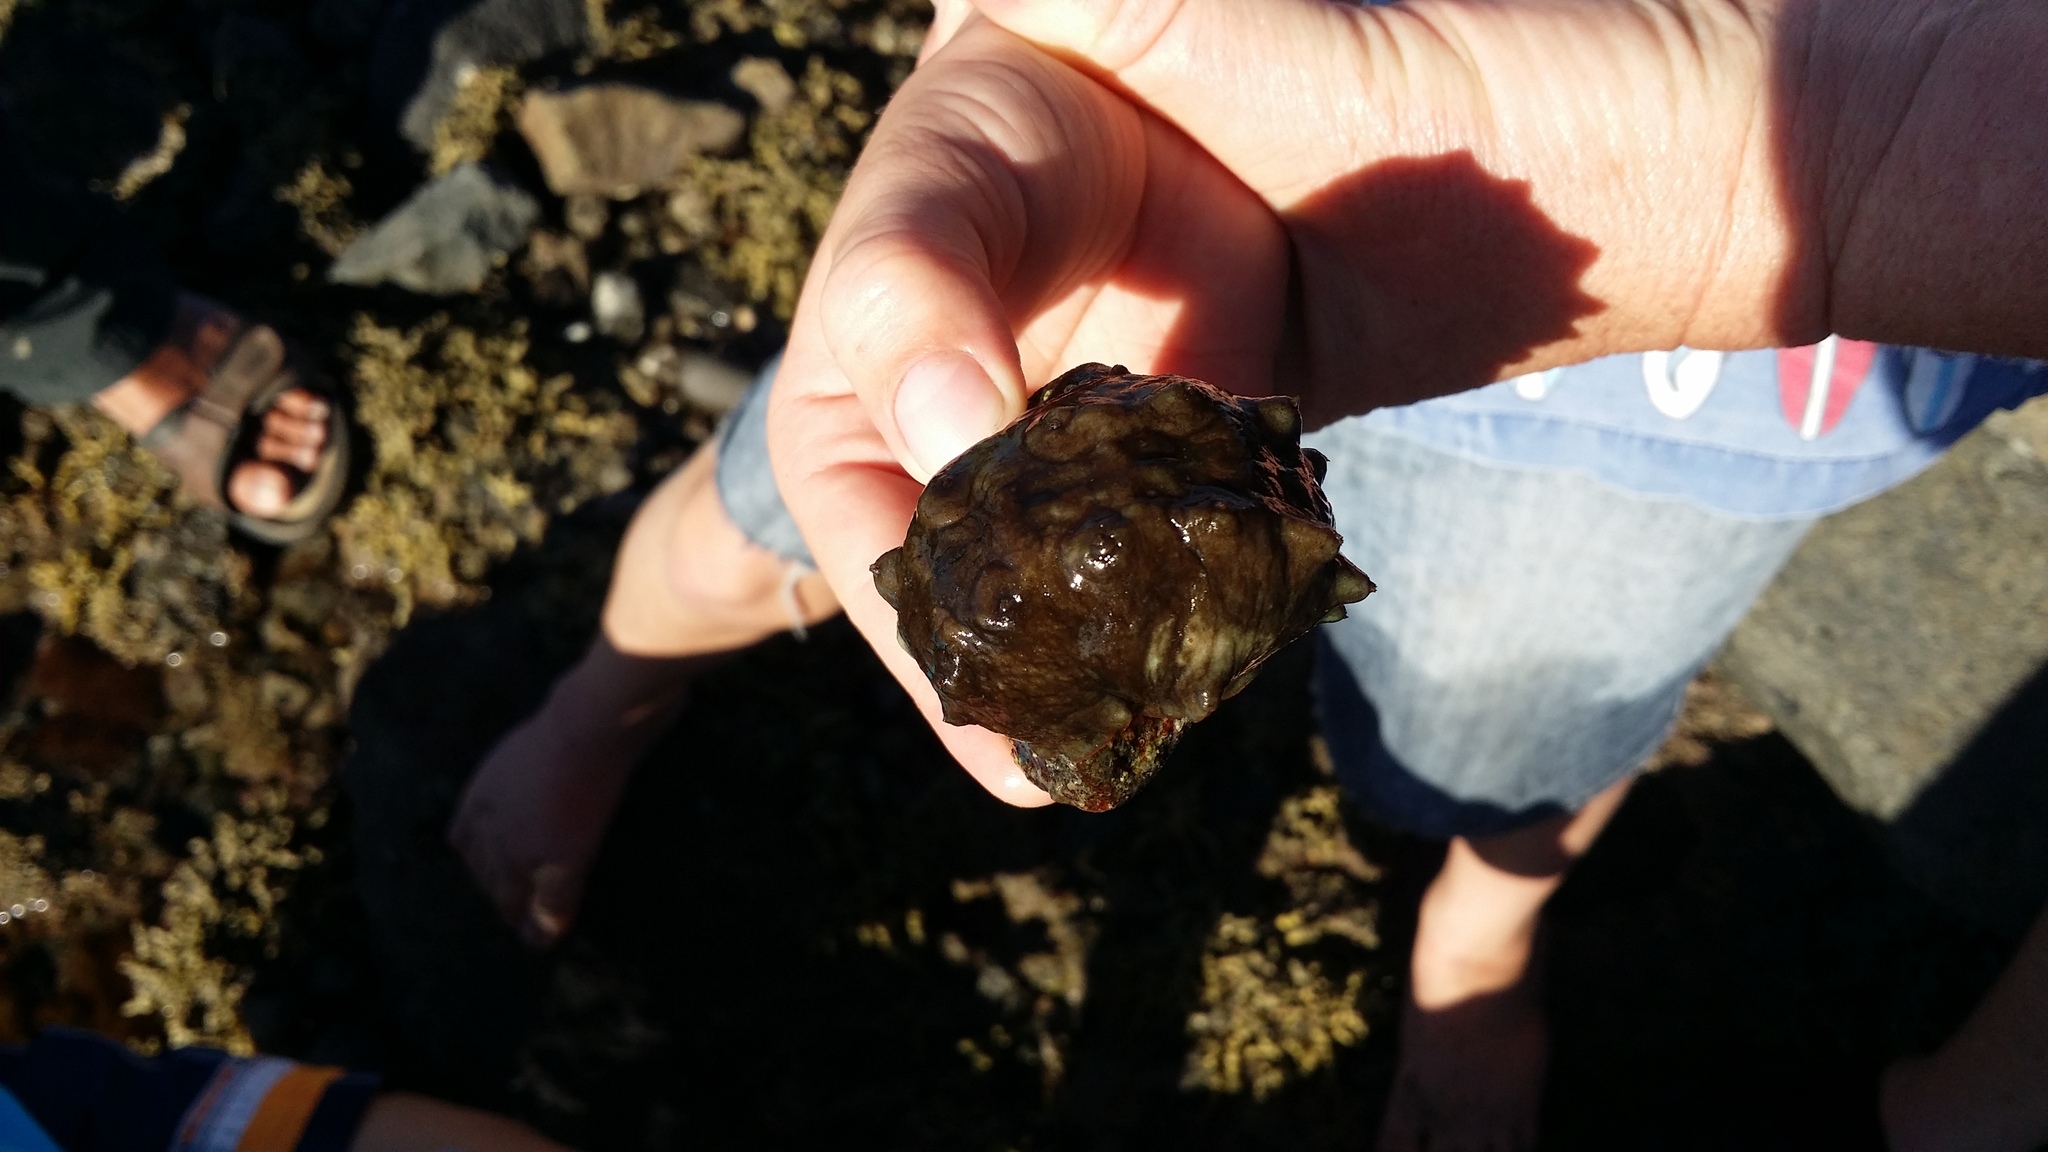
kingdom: Animalia
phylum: Mollusca
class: Polyplacophora
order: Chitonida
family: Acanthochitonidae
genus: Cryptoconchus
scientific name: Cryptoconchus porosus
